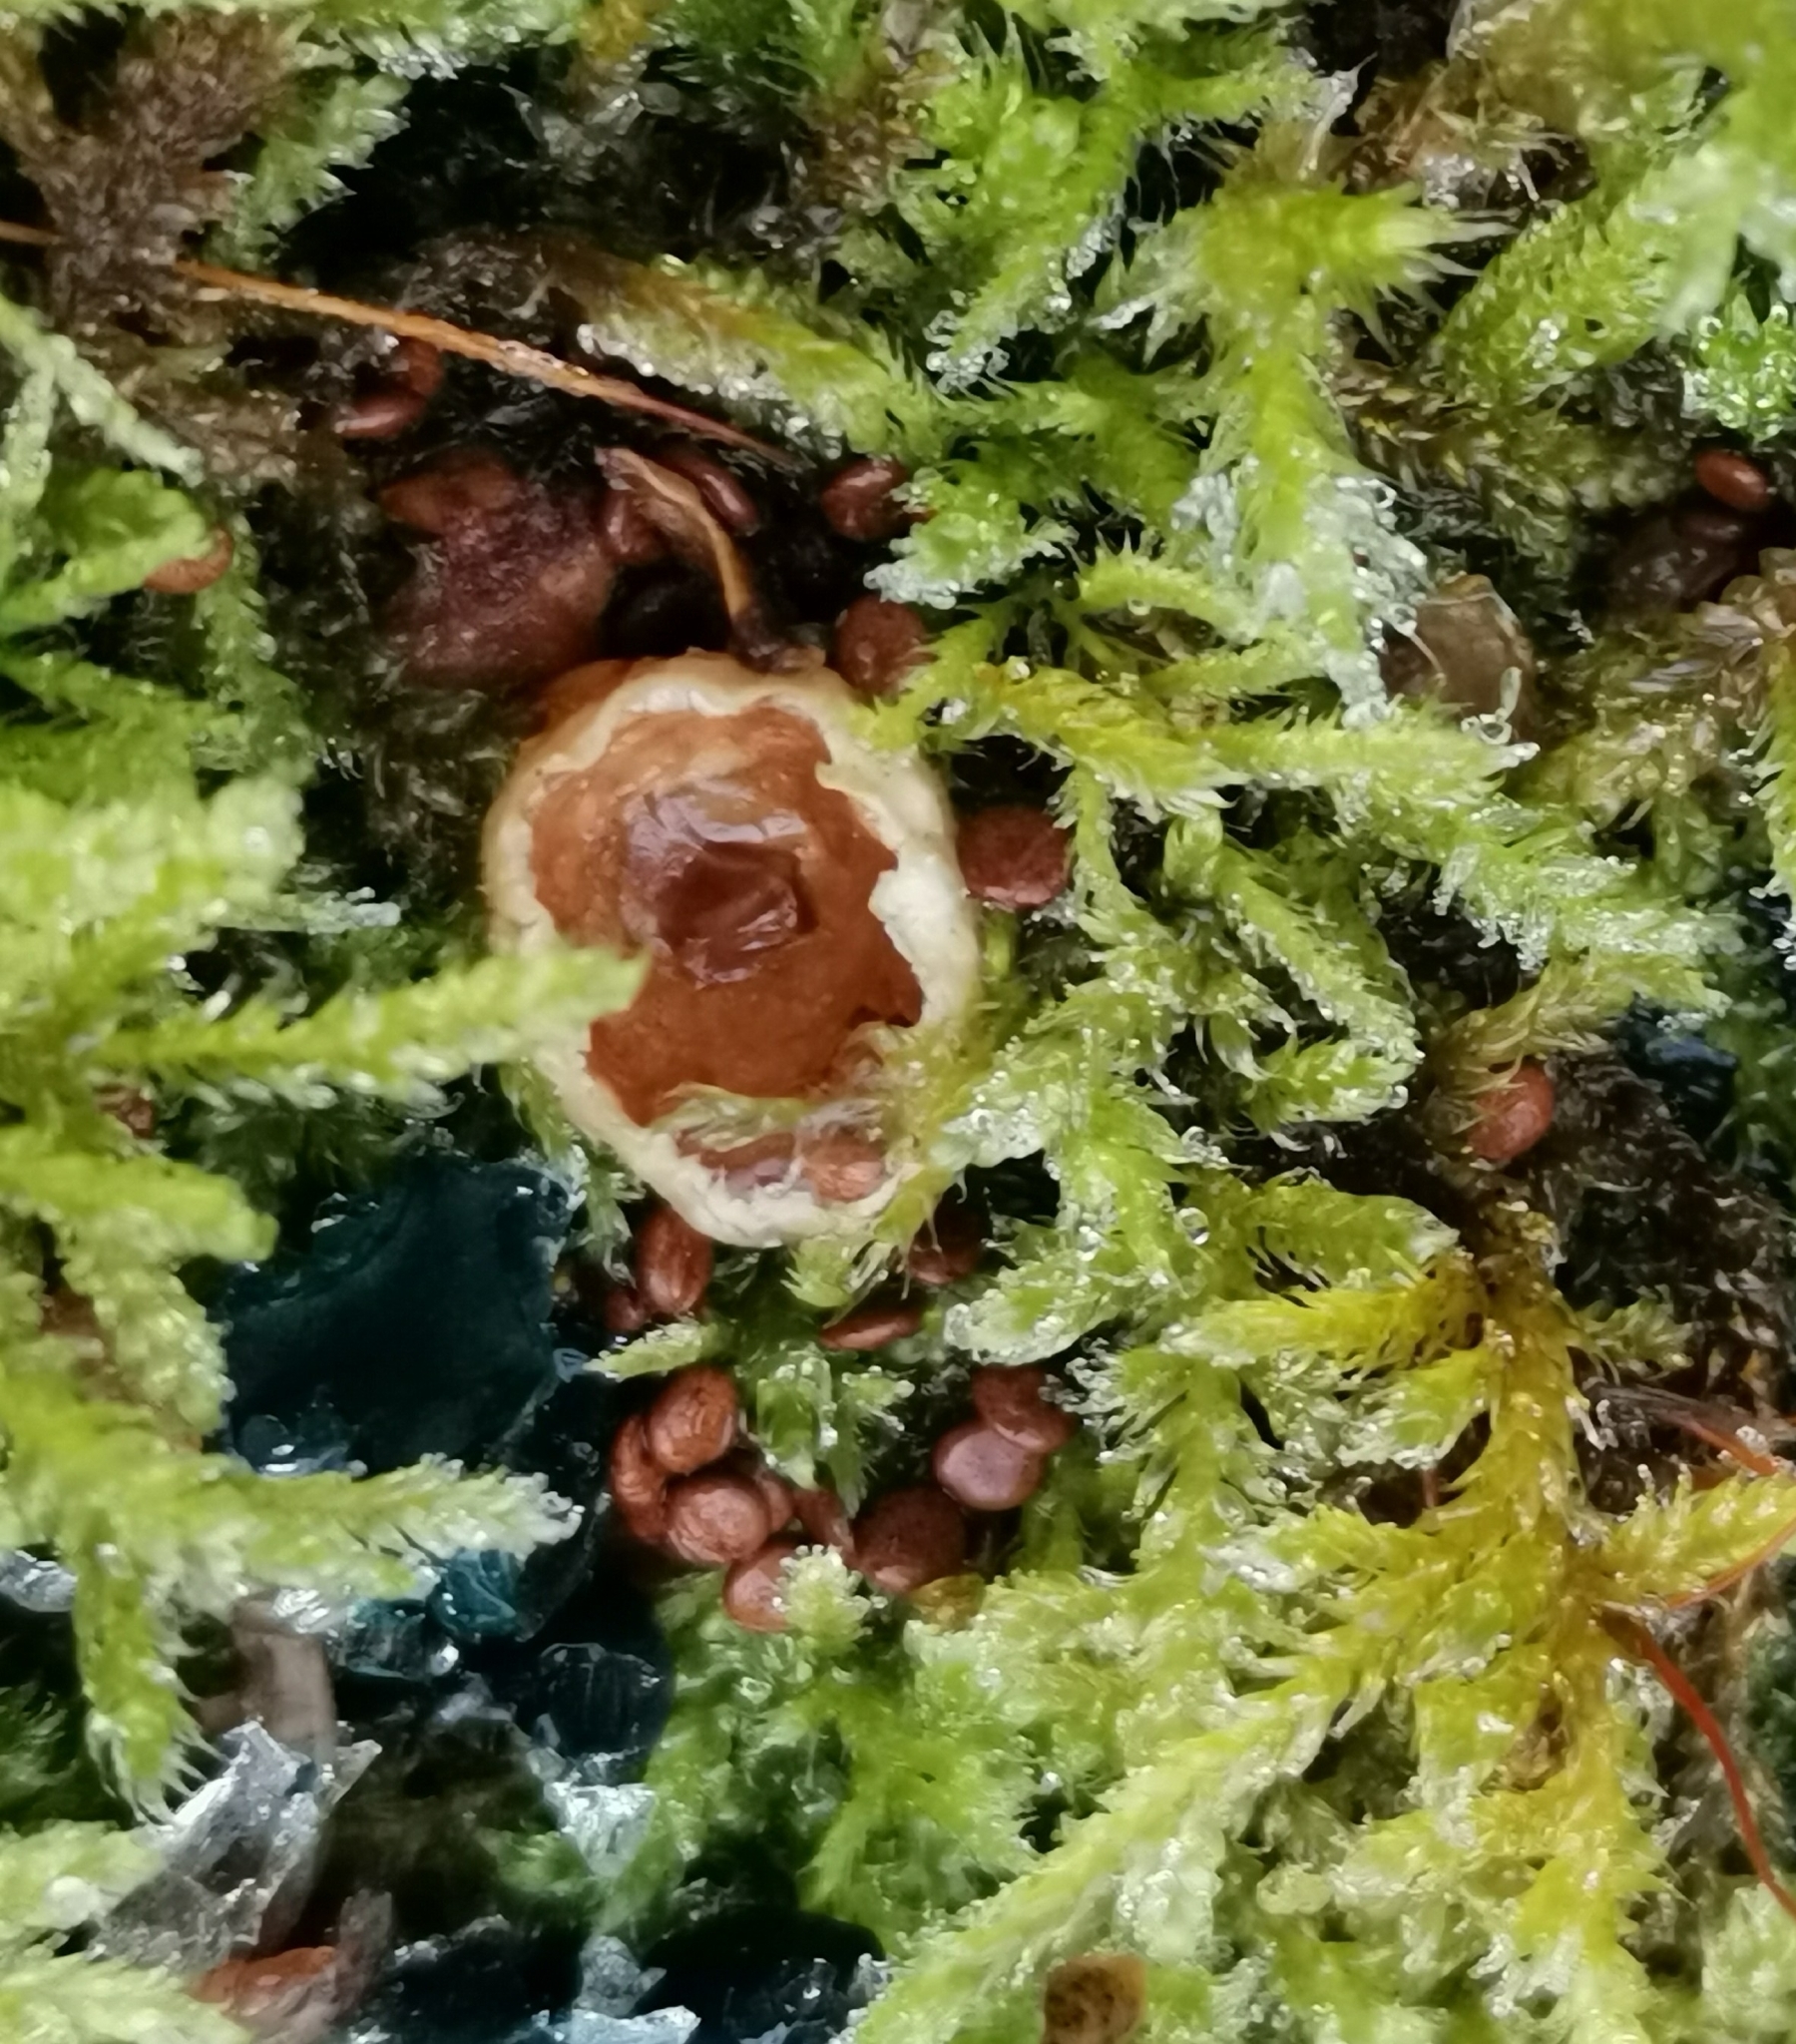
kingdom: Fungi
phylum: Basidiomycota
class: Agaricomycetes
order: Agaricales
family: Agaricaceae
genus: Nidularia
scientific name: Nidularia deformis
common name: Pea-shaped bird's nest
